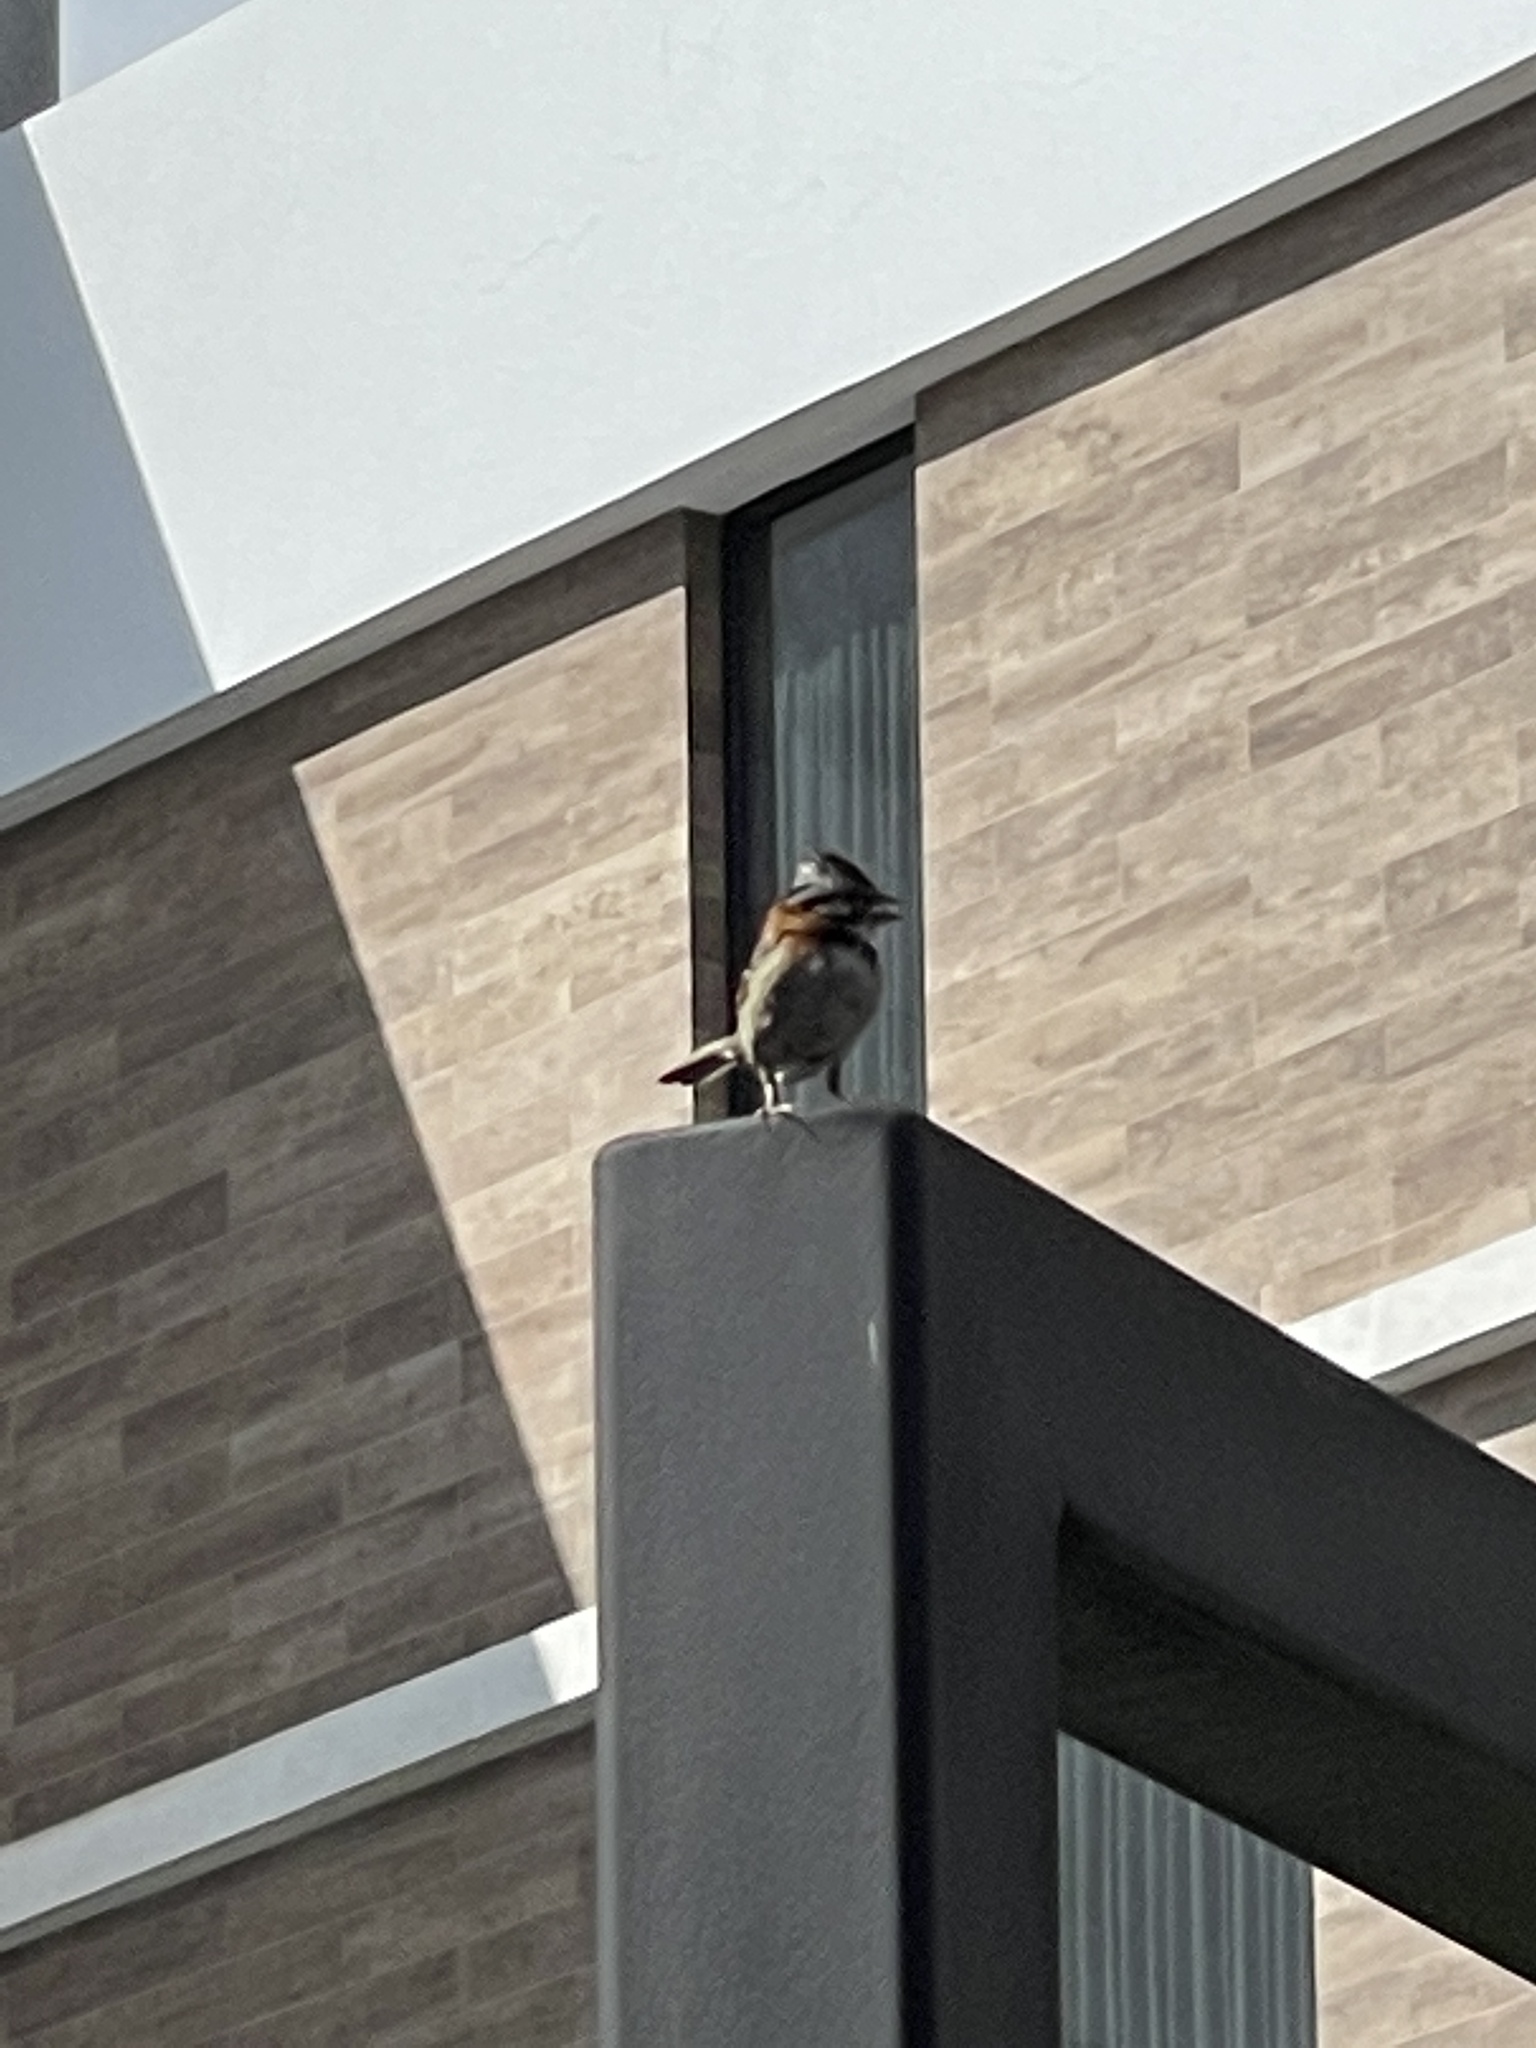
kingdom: Animalia
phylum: Chordata
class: Aves
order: Passeriformes
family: Passerellidae
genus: Zonotrichia
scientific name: Zonotrichia capensis
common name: Rufous-collared sparrow
